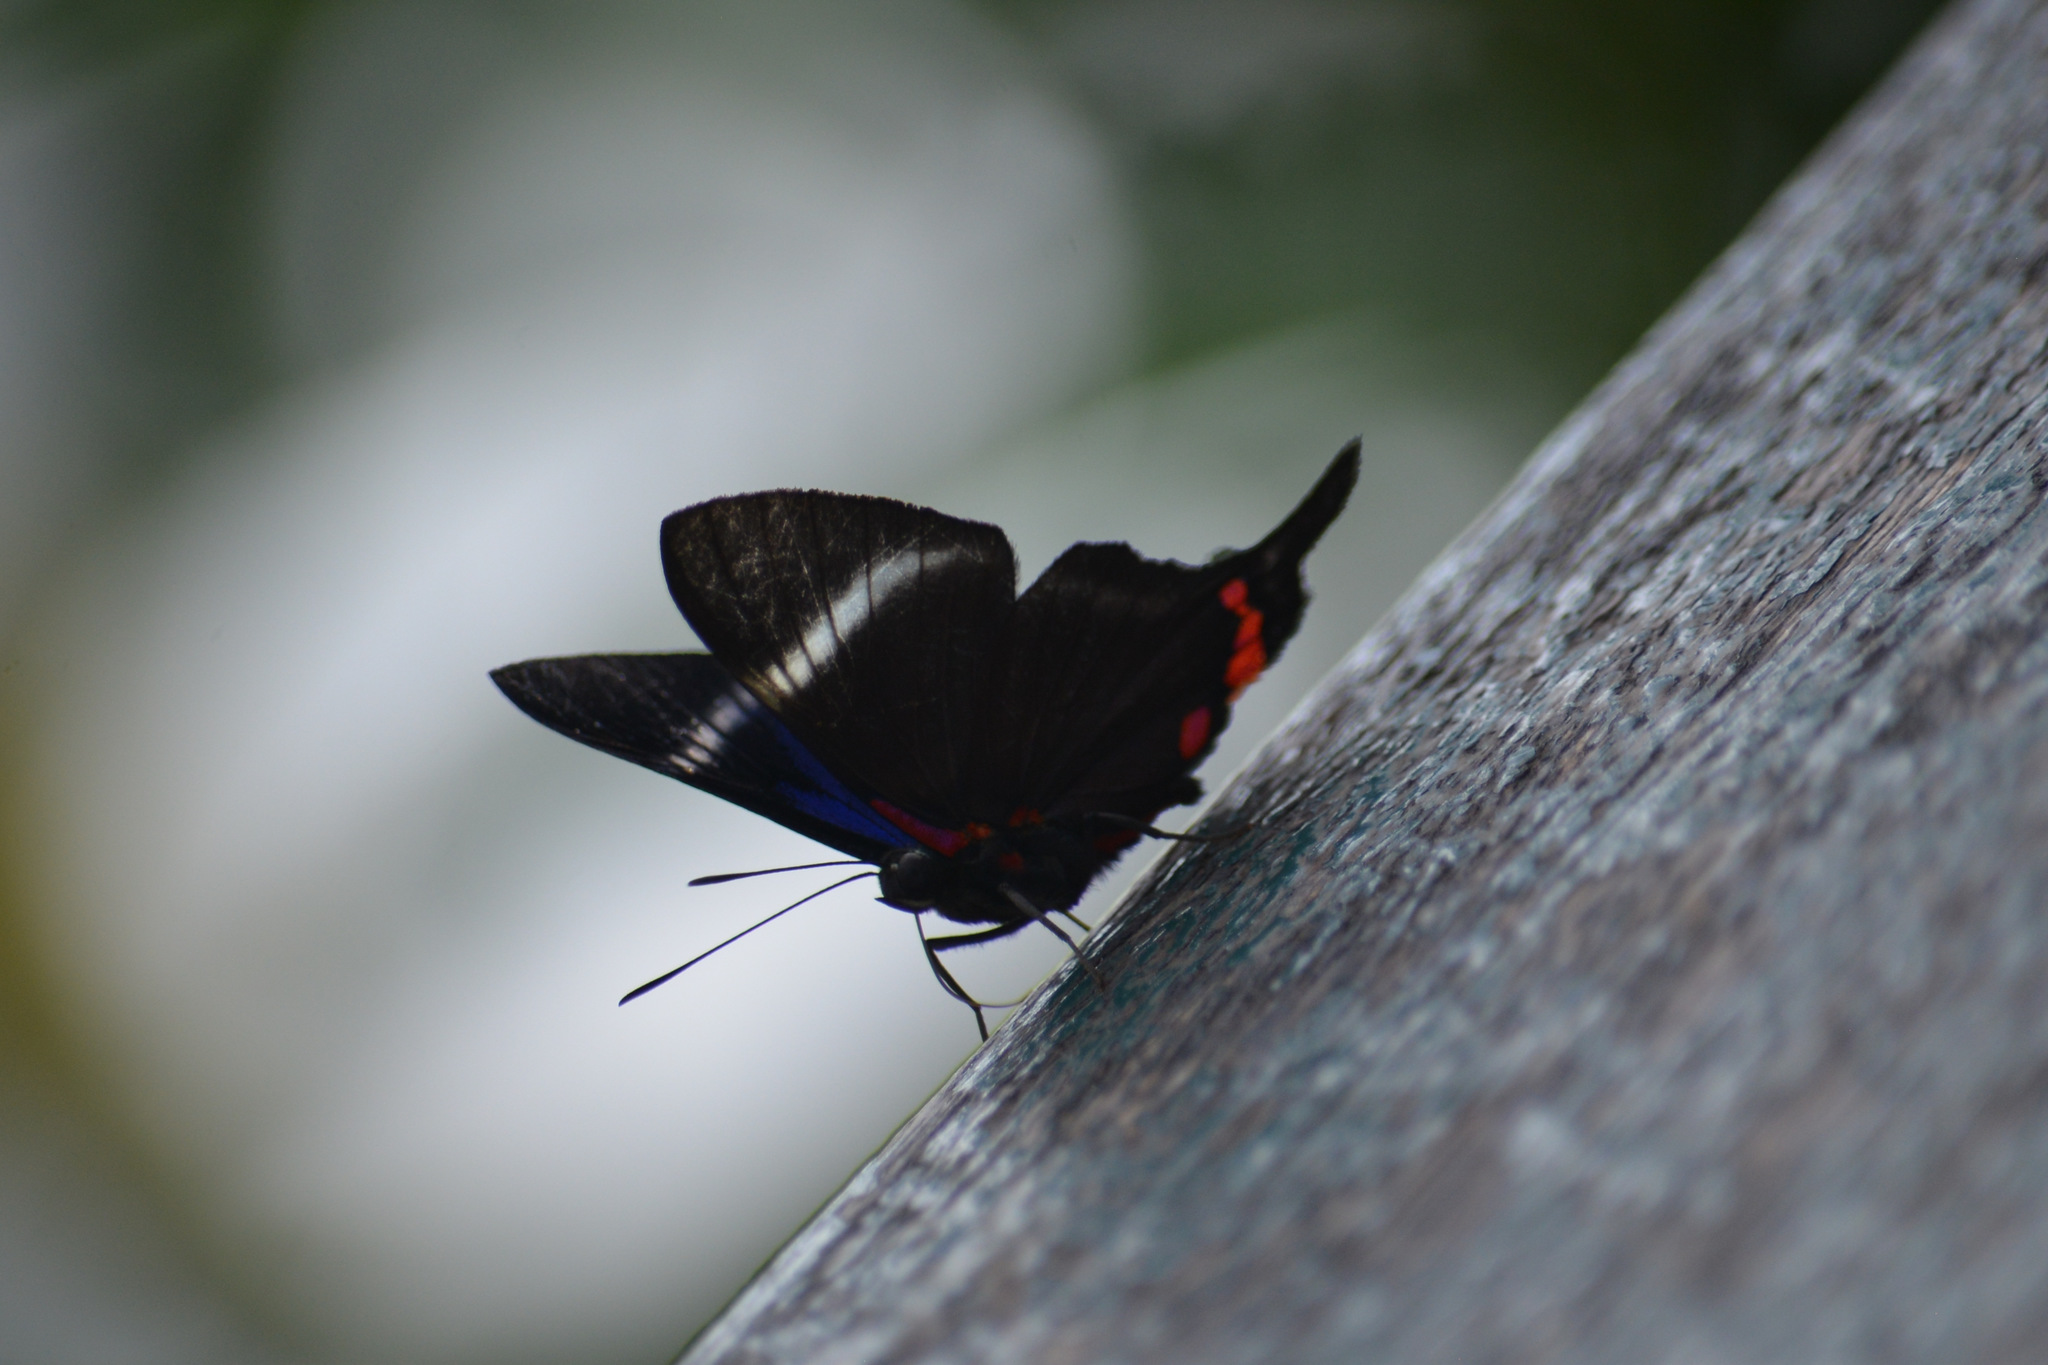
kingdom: Animalia
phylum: Arthropoda
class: Insecta
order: Lepidoptera
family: Riodinidae
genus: Rhetus
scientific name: Rhetus periander
